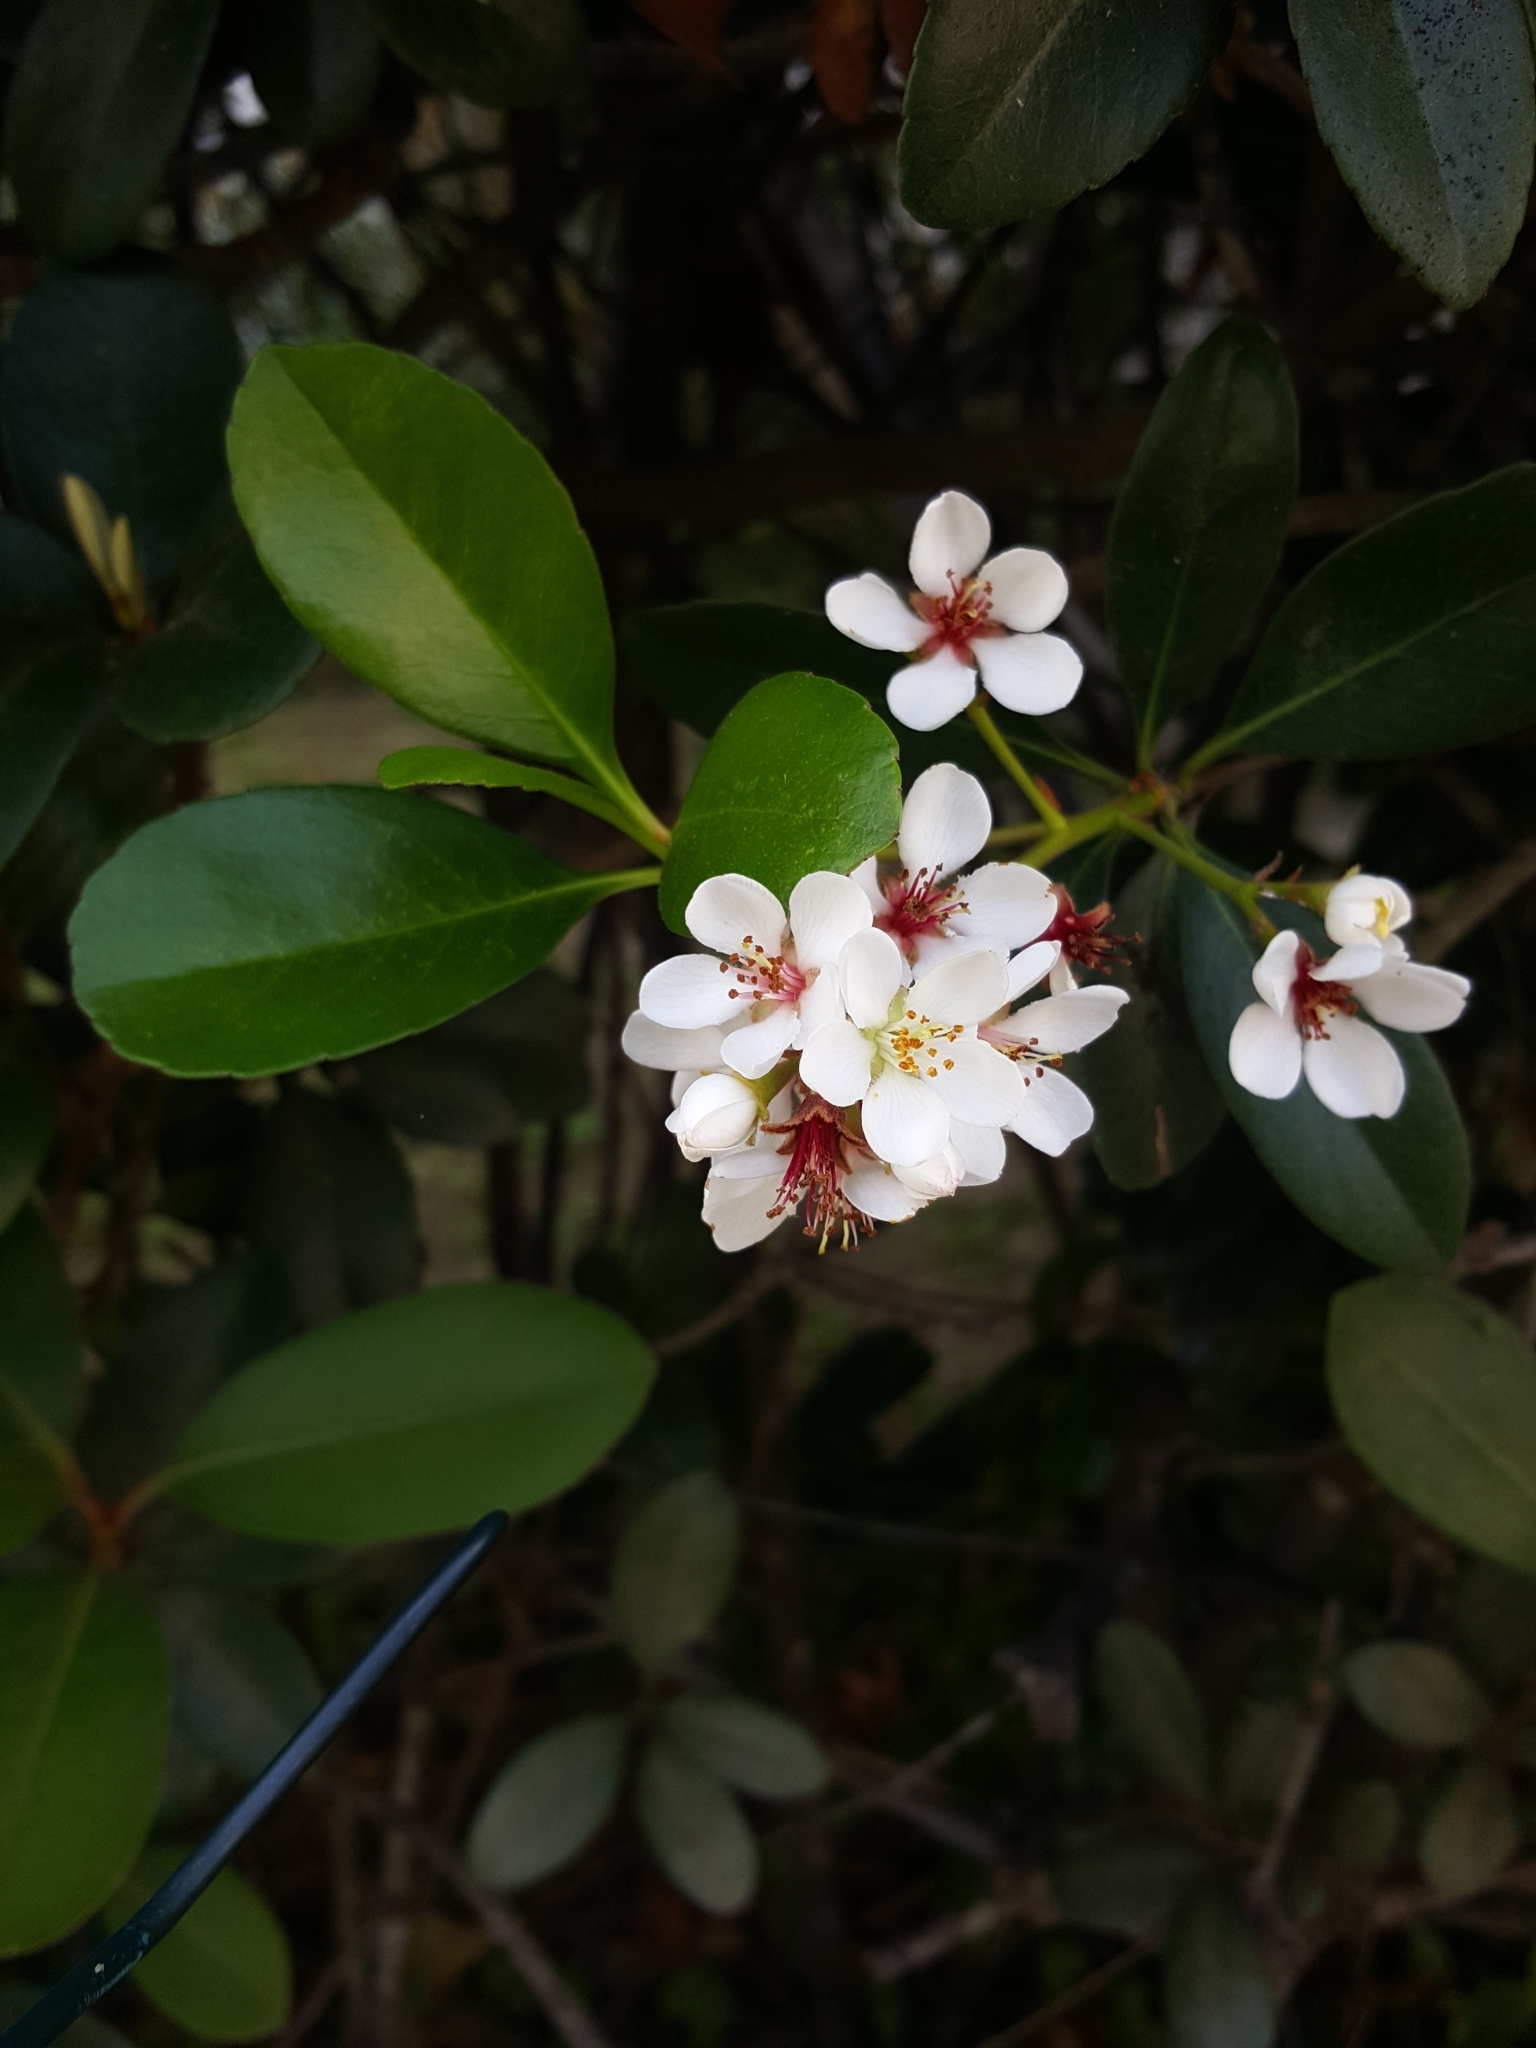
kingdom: Plantae
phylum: Tracheophyta
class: Magnoliopsida
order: Rosales
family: Rosaceae
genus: Rhaphiolepis
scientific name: Rhaphiolepis indica
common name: India-hawthorn
